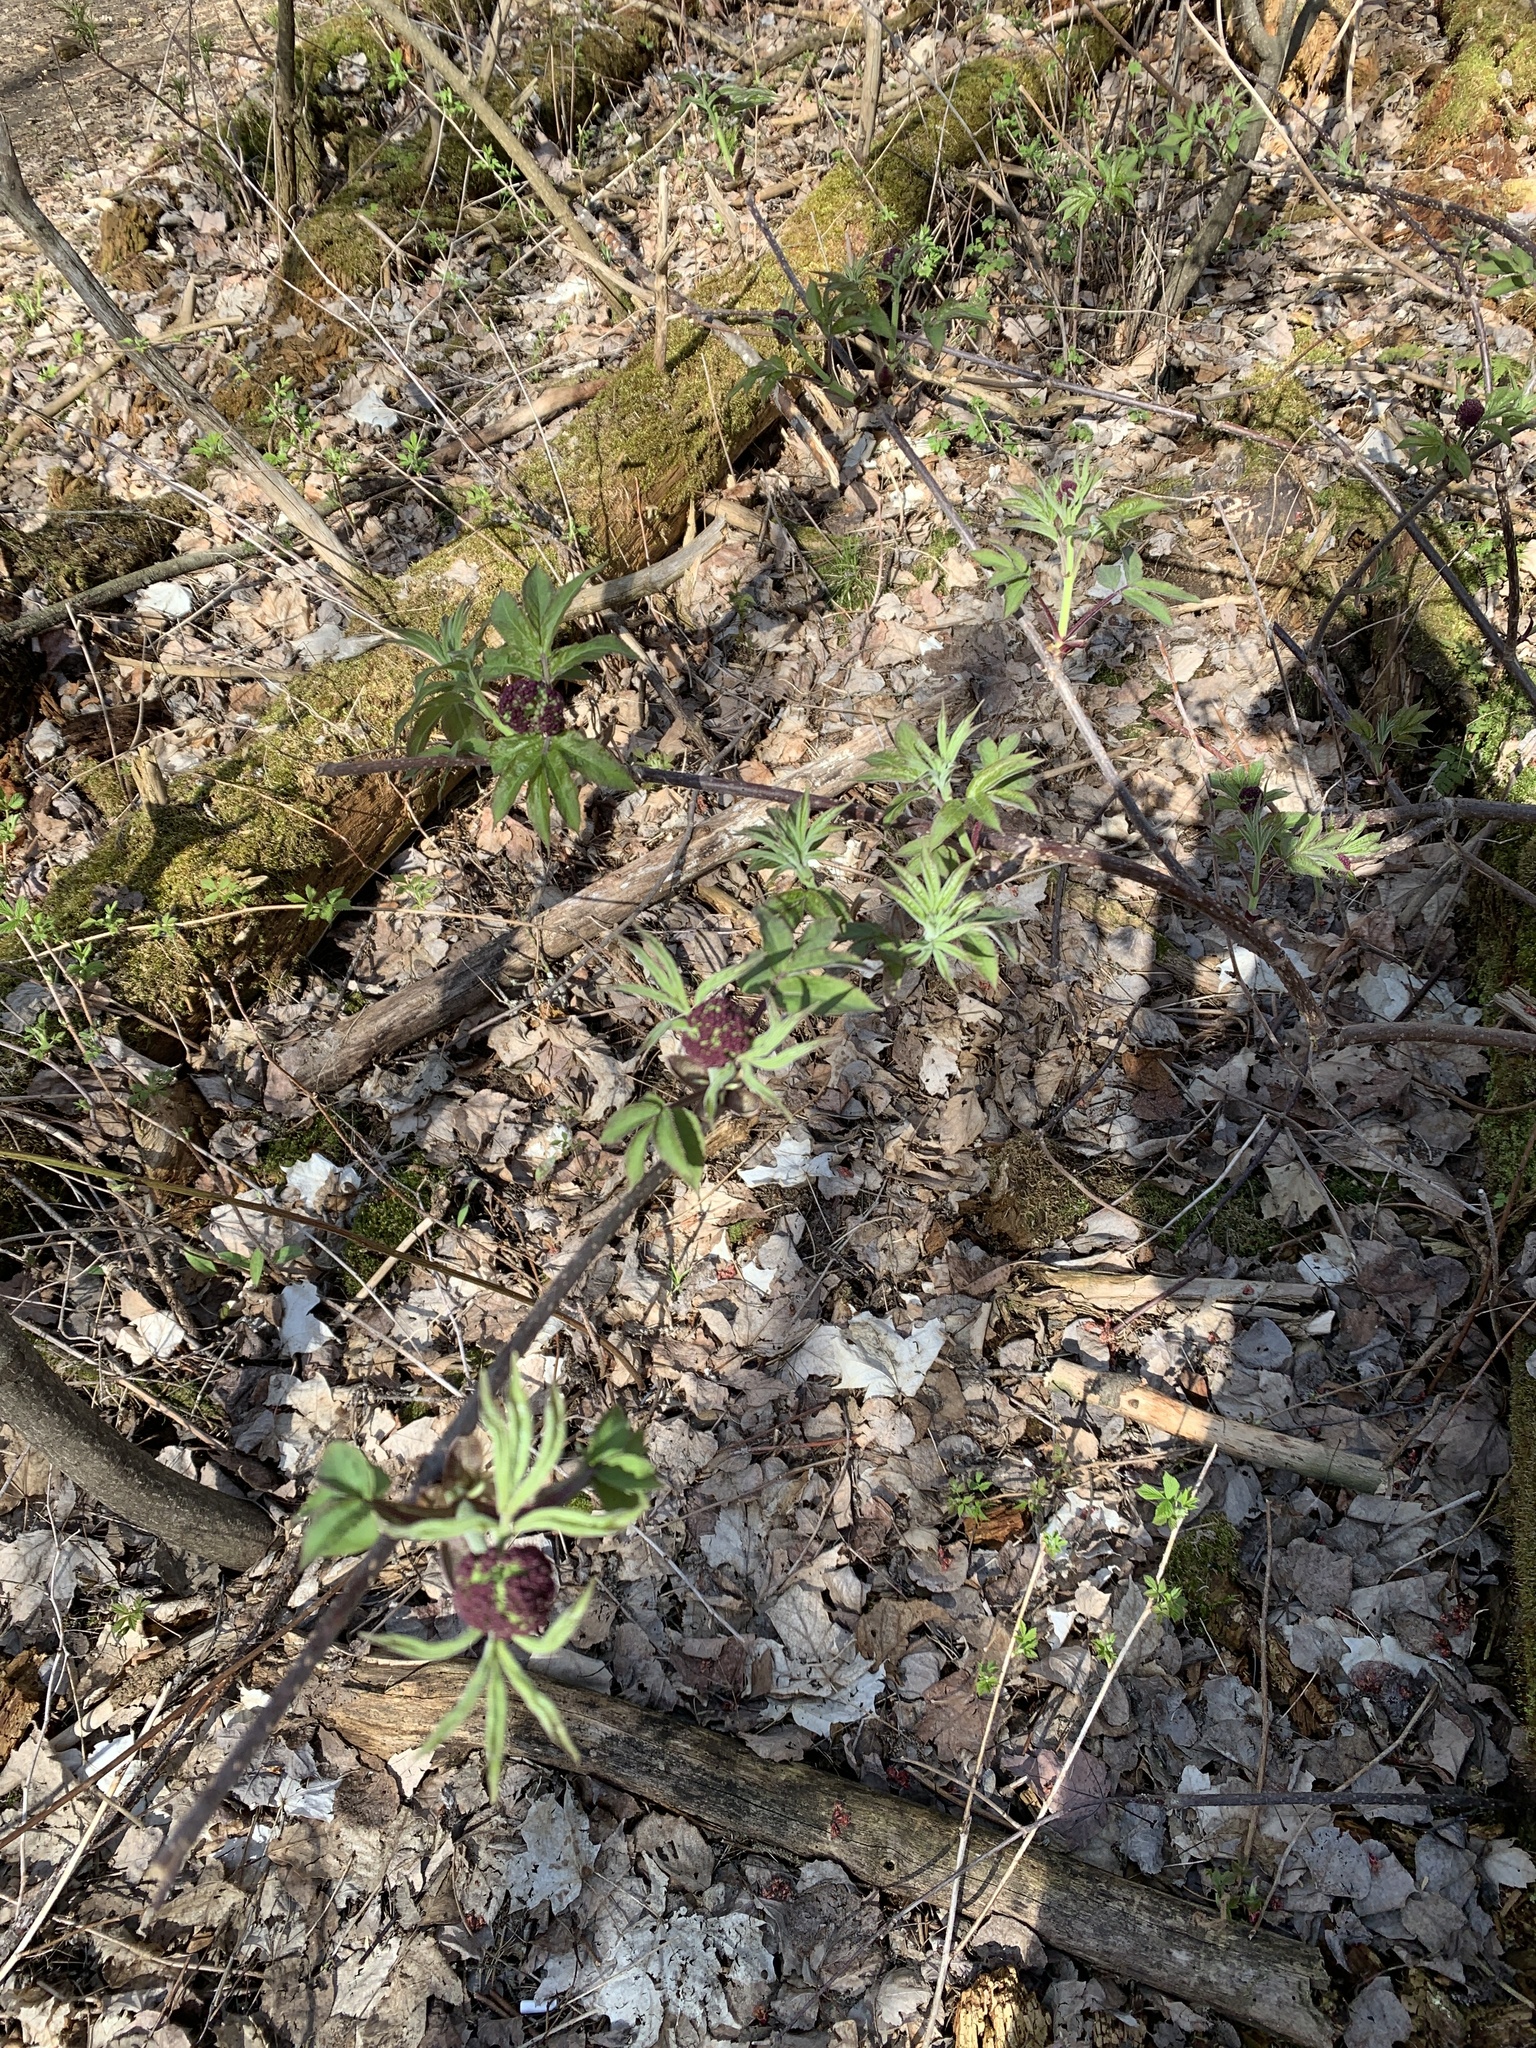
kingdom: Plantae
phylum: Tracheophyta
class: Magnoliopsida
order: Dipsacales
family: Viburnaceae
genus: Sambucus
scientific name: Sambucus racemosa
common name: Red-berried elder
